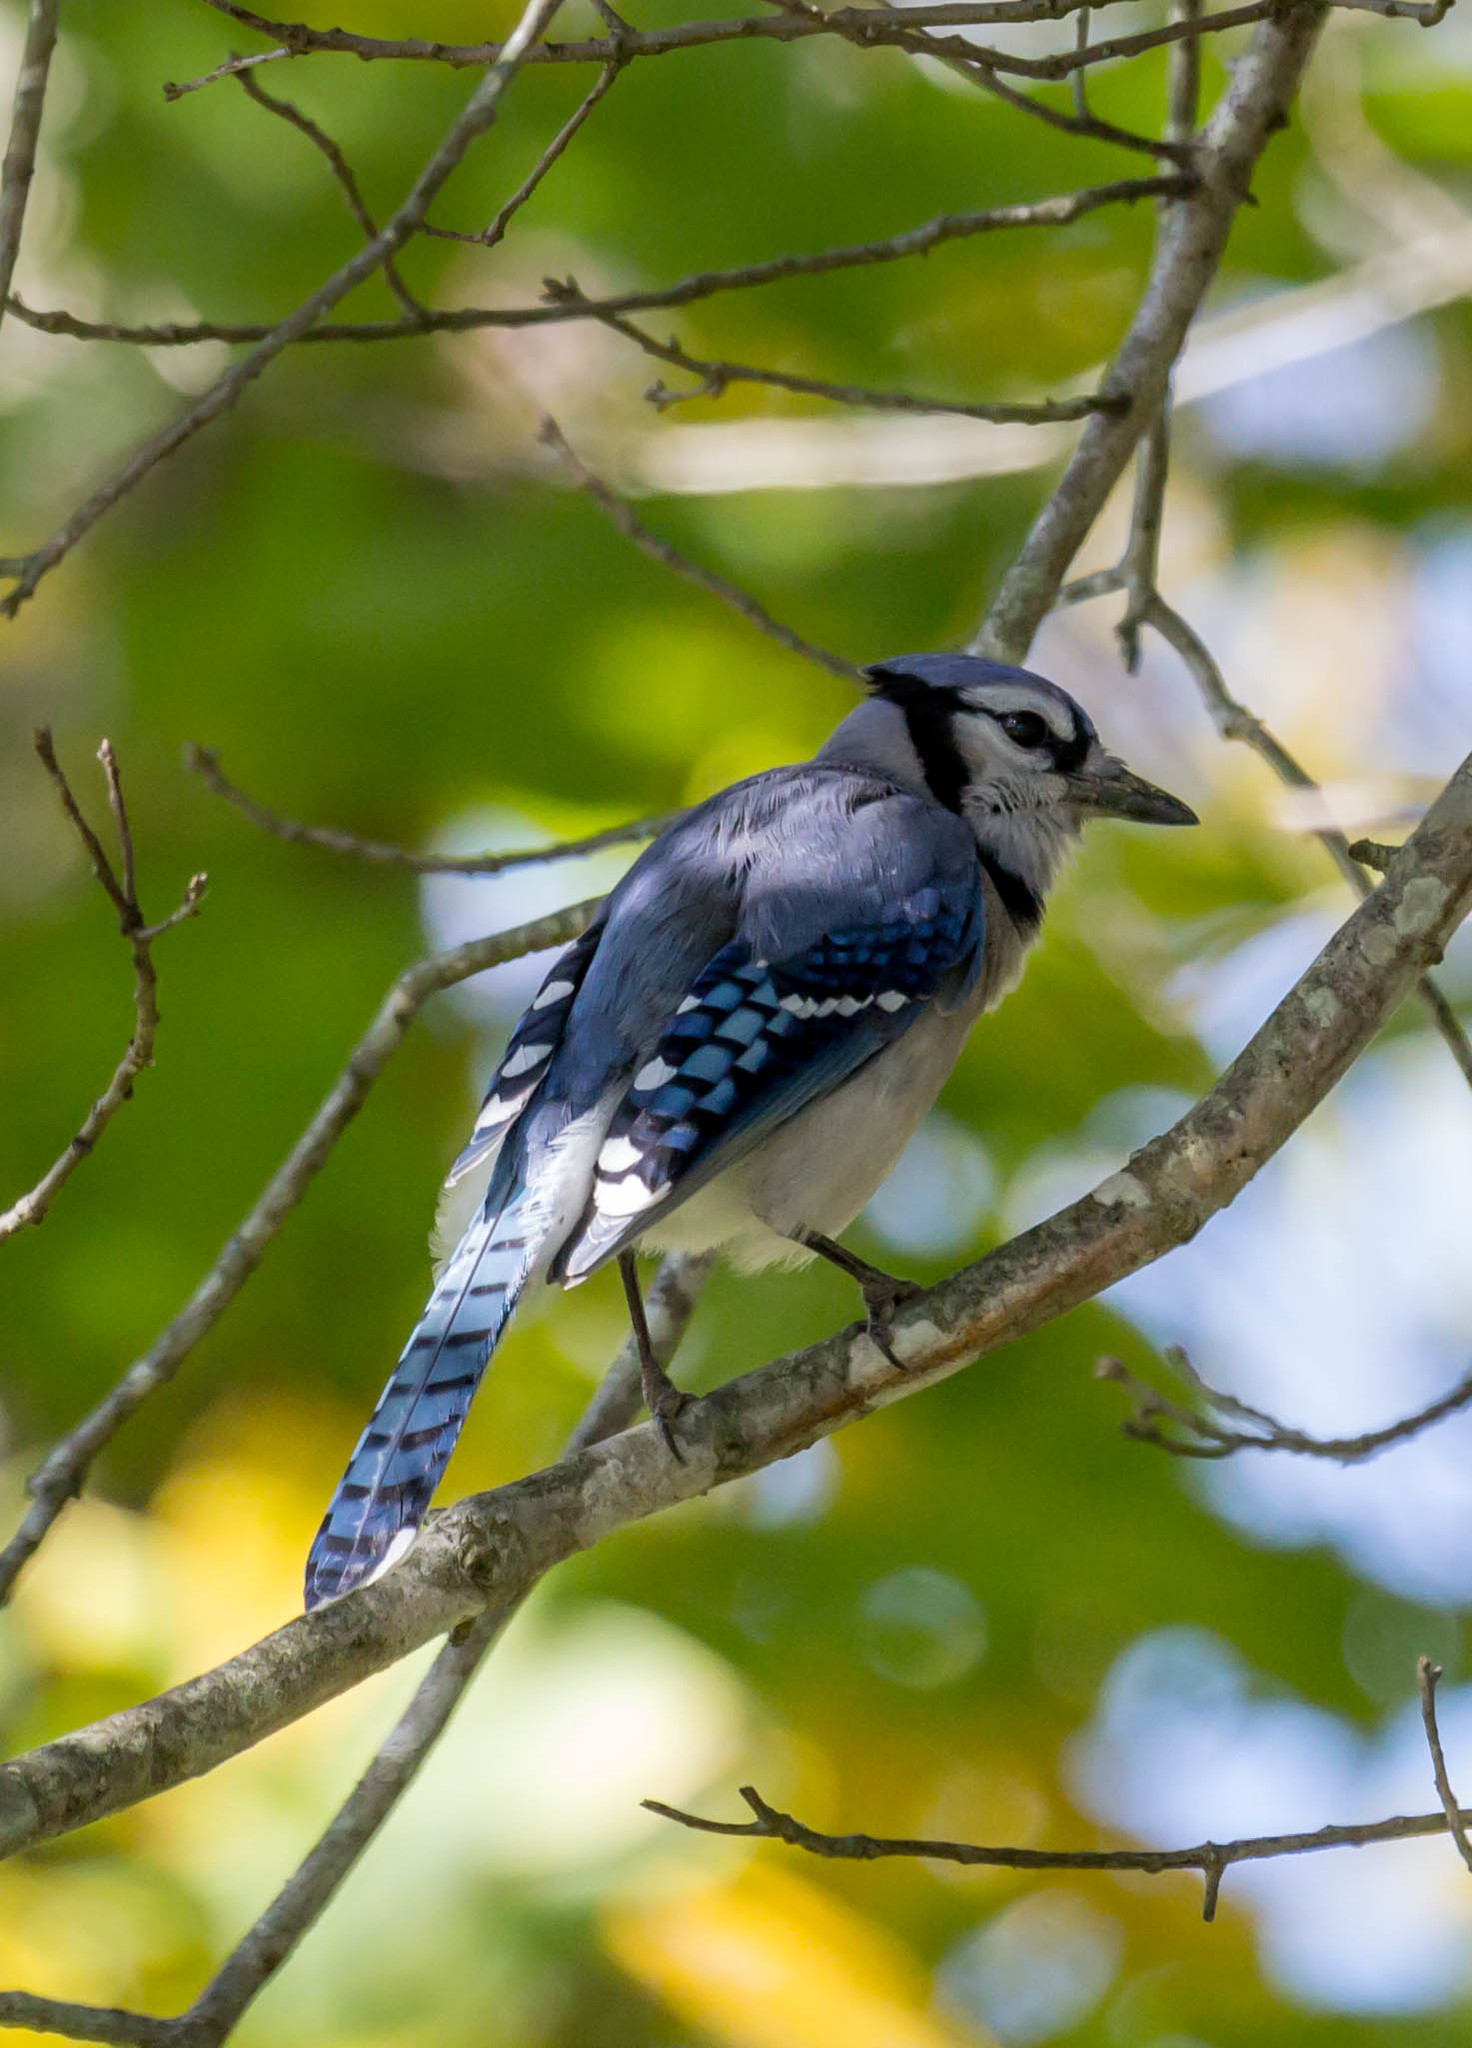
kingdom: Animalia
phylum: Chordata
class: Aves
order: Passeriformes
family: Corvidae
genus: Cyanocitta
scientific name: Cyanocitta cristata
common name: Blue jay
